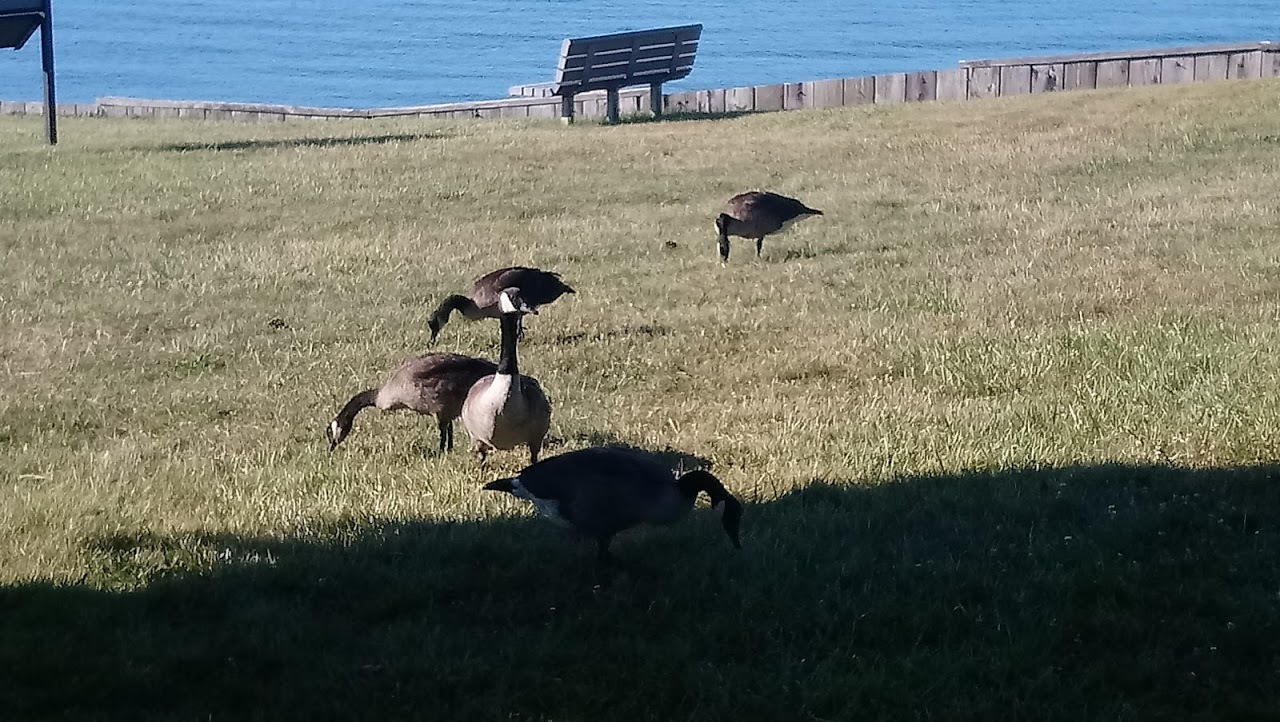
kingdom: Animalia
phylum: Chordata
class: Aves
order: Anseriformes
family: Anatidae
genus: Branta
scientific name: Branta canadensis
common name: Canada goose
